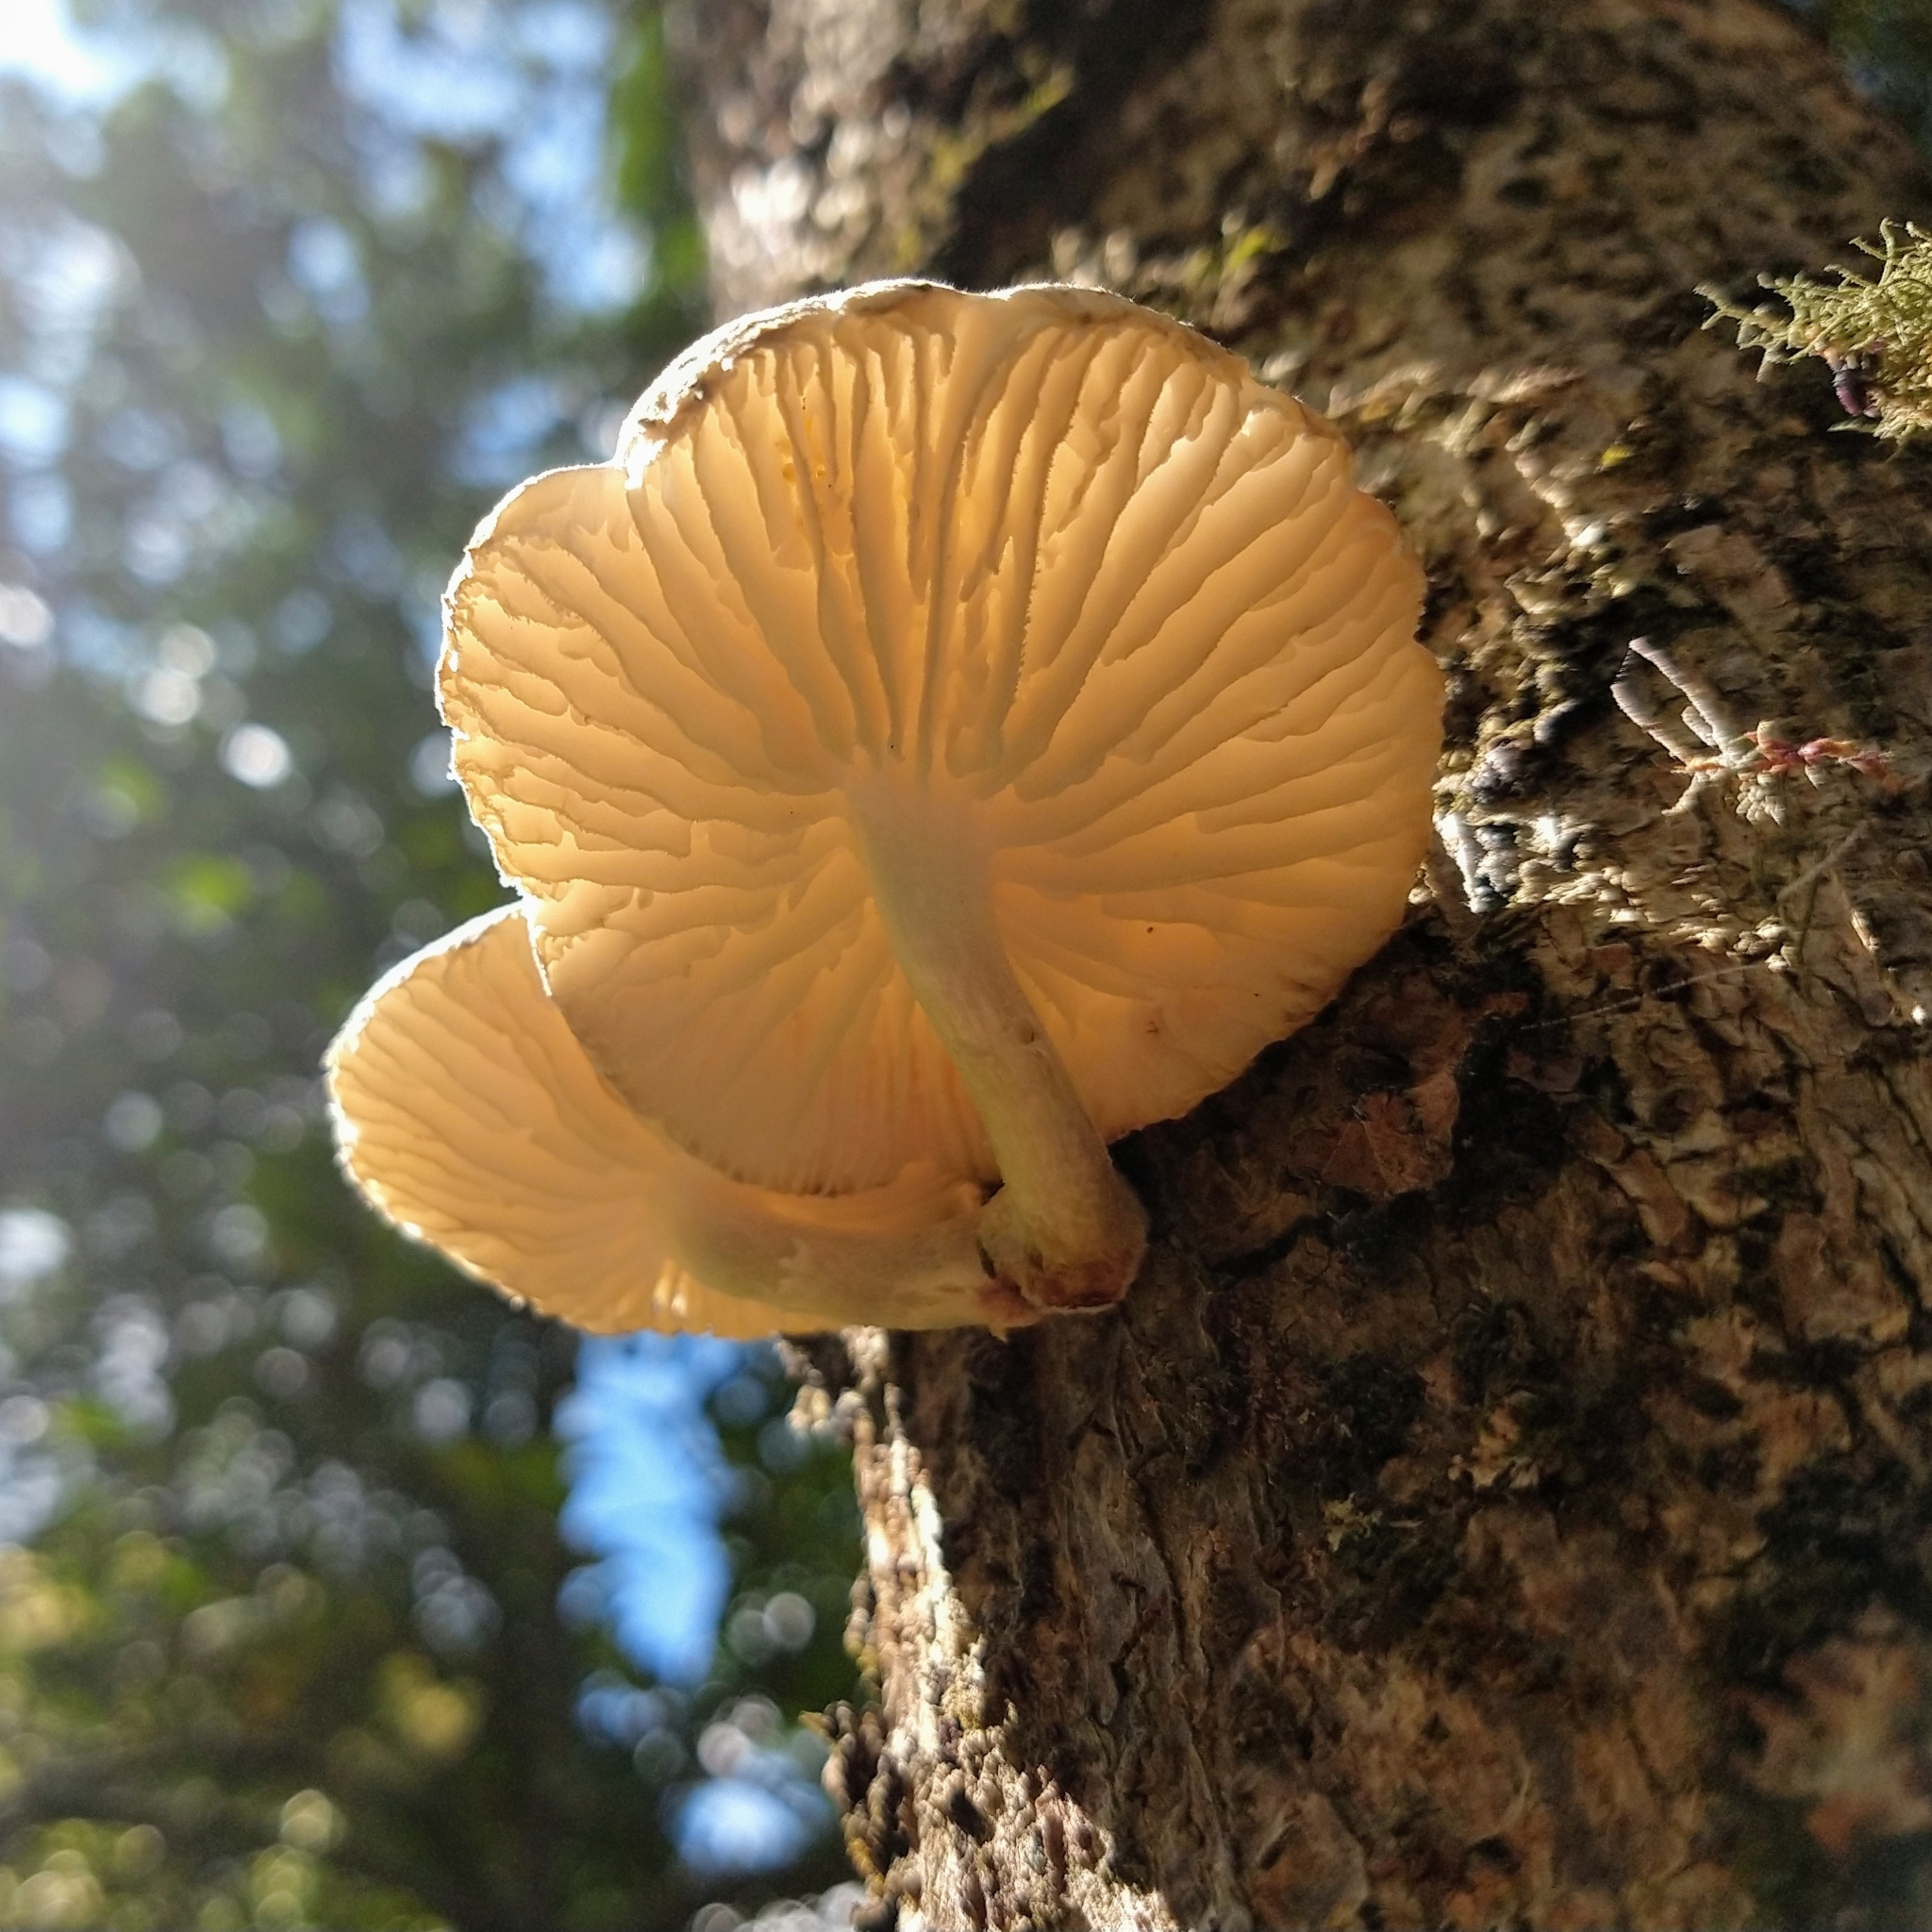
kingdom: Fungi
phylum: Basidiomycota
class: Agaricomycetes
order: Agaricales
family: Physalacriaceae
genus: Oudemansiella
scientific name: Oudemansiella cubensis
